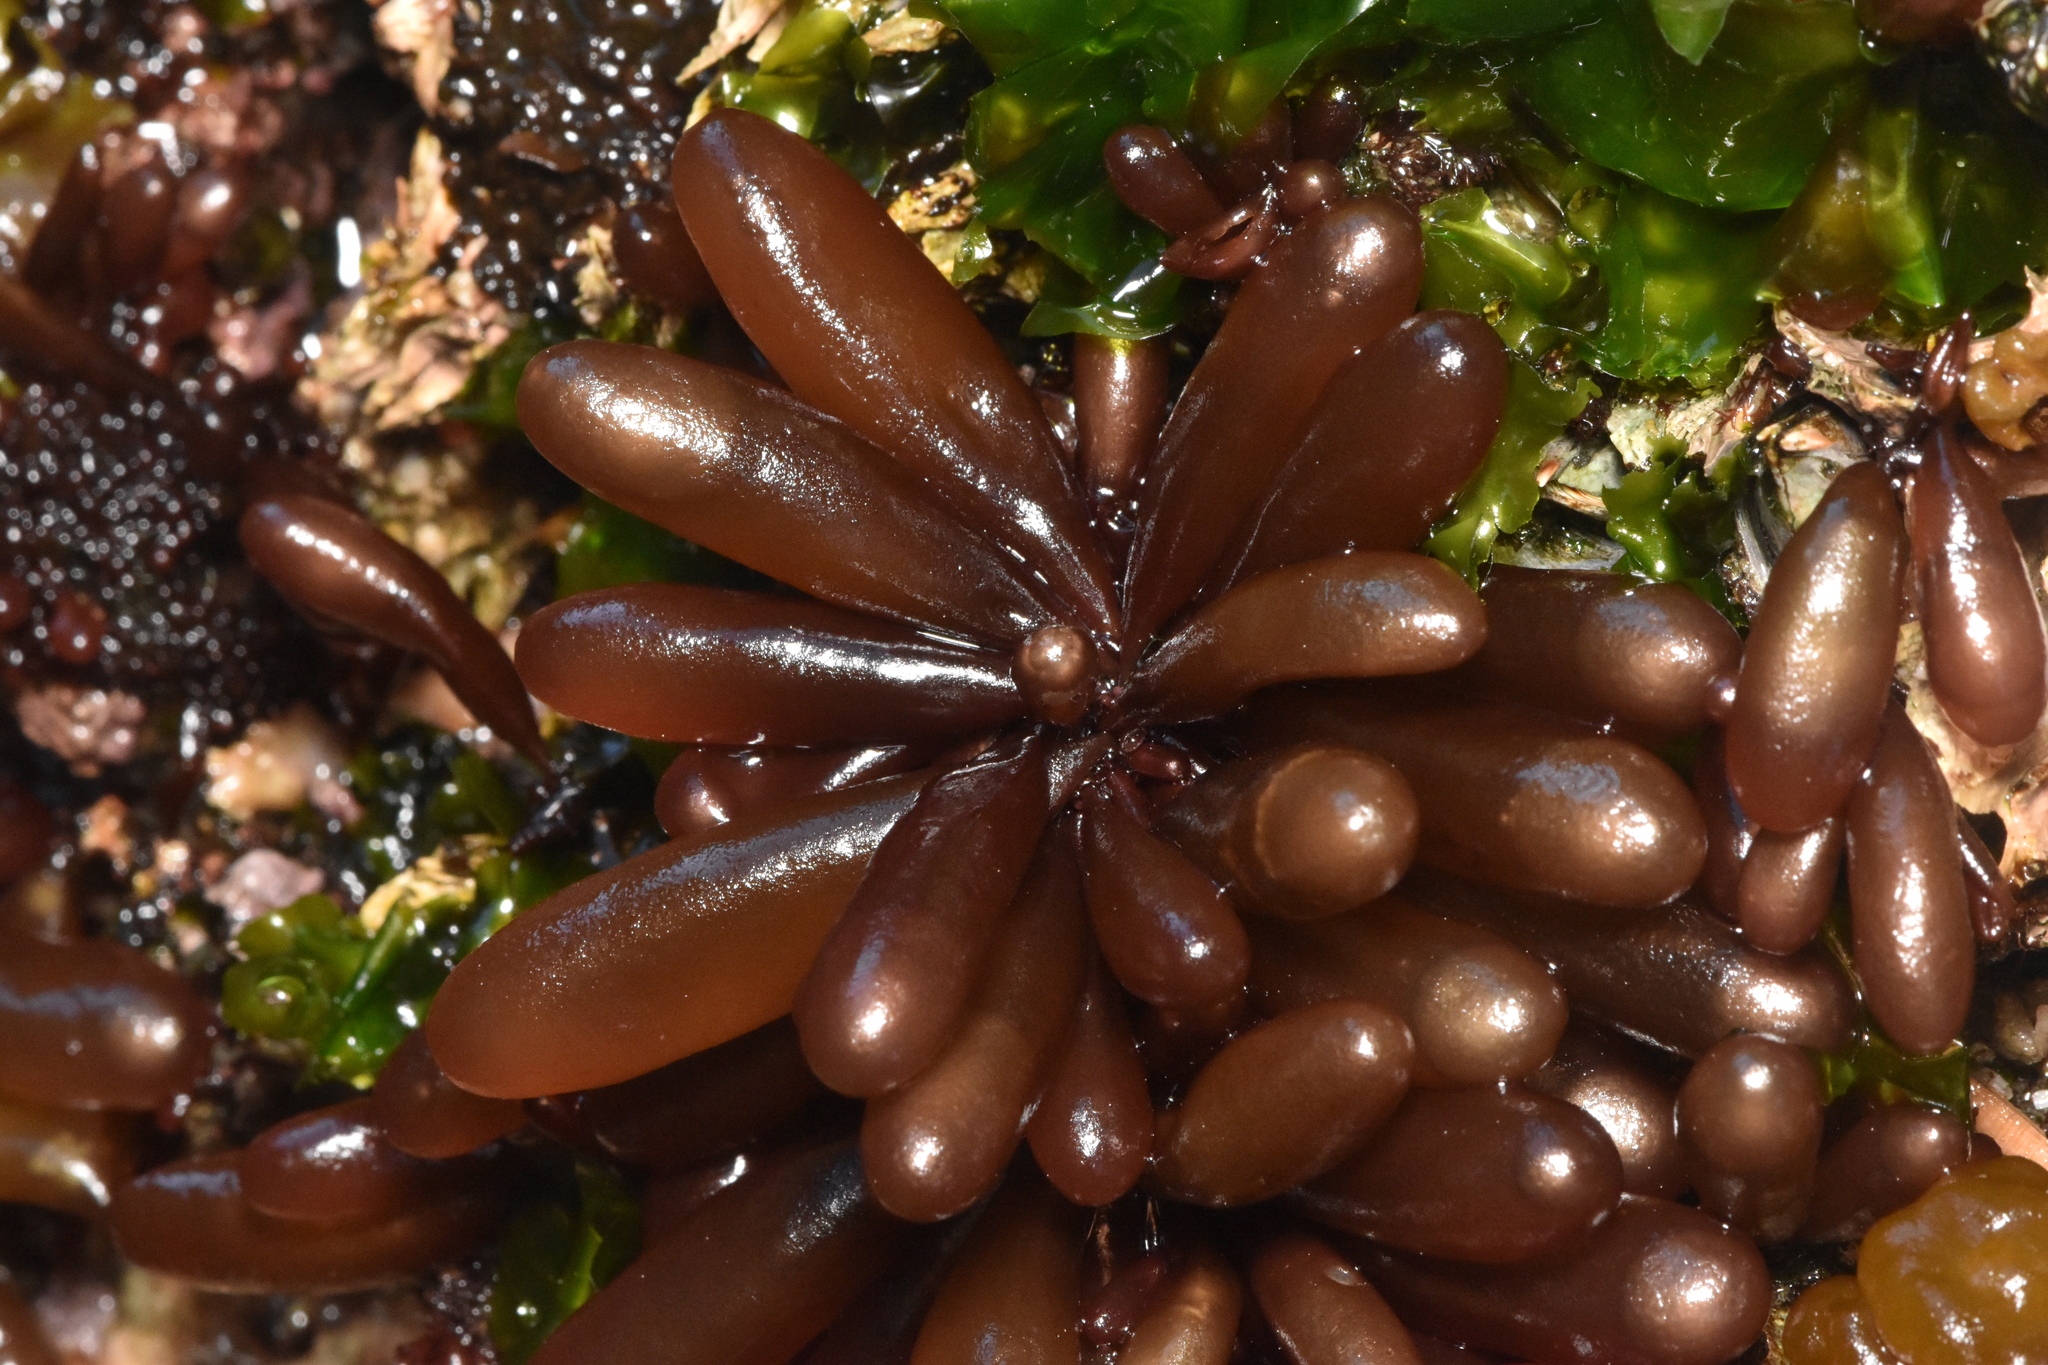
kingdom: Plantae
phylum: Rhodophyta
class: Florideophyceae
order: Palmariales
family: Palmariaceae
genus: Halosaccion
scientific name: Halosaccion glandiforme
